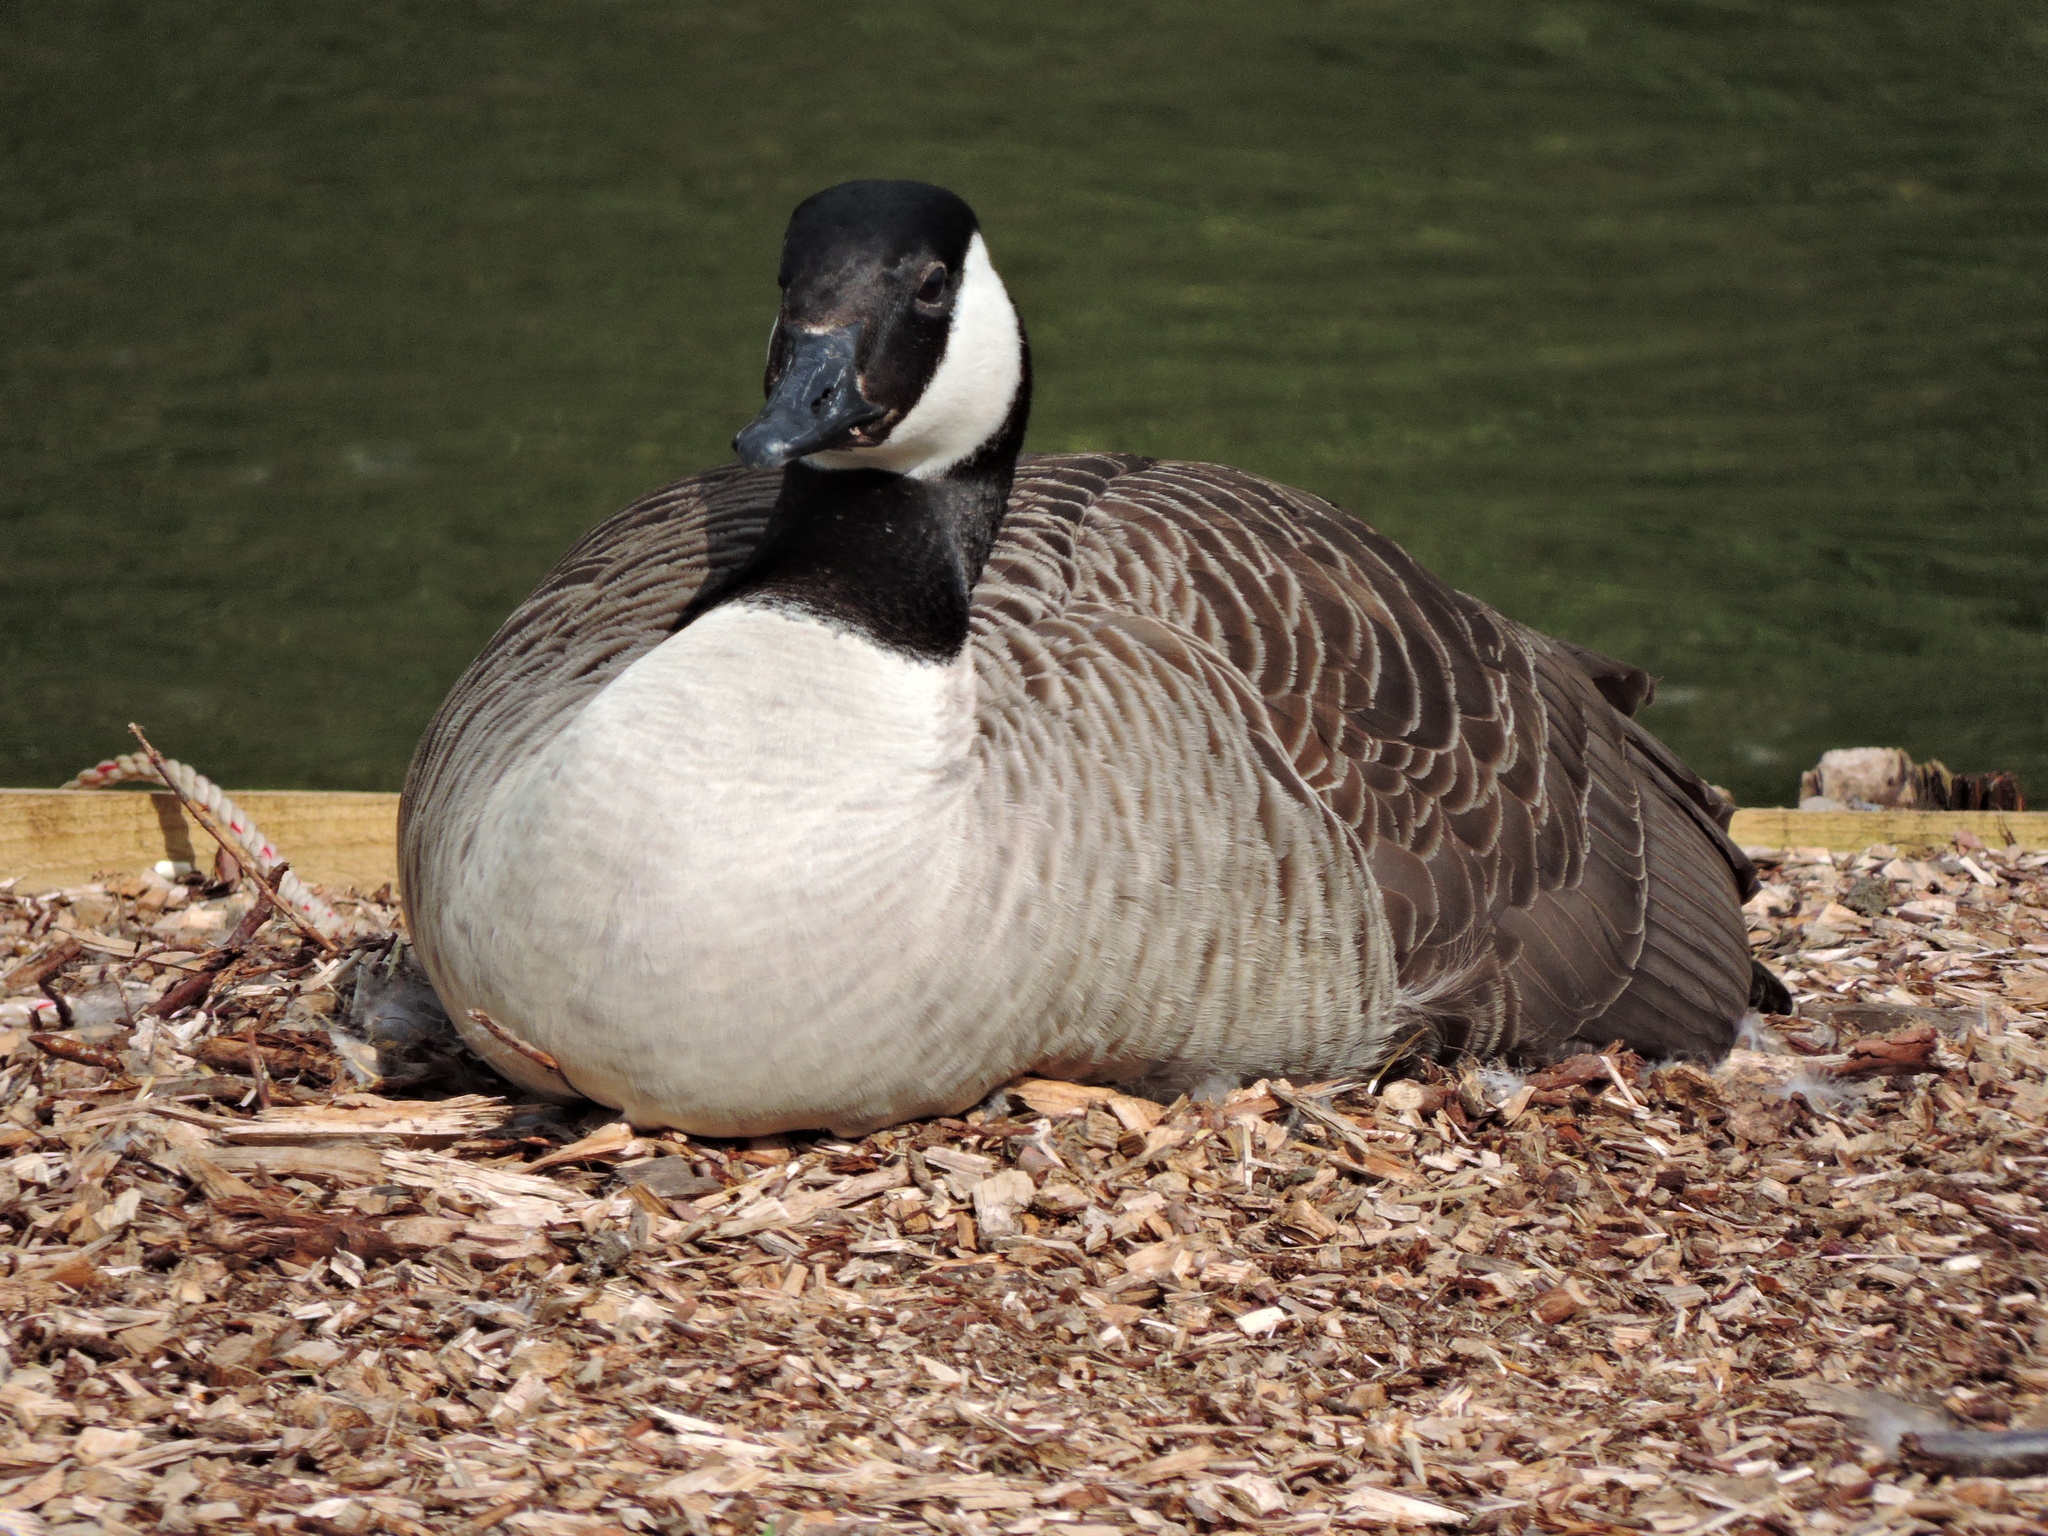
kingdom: Animalia
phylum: Chordata
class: Aves
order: Anseriformes
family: Anatidae
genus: Branta
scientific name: Branta canadensis
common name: Canada goose
